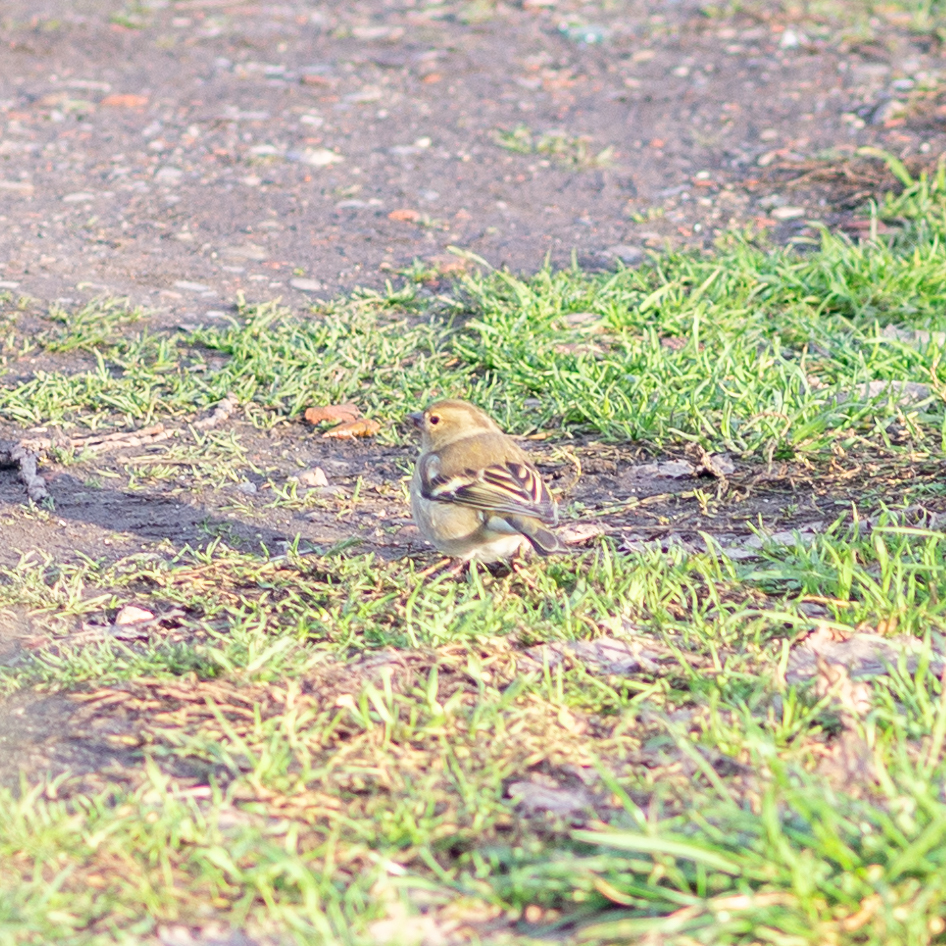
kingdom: Animalia
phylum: Chordata
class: Aves
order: Passeriformes
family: Fringillidae
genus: Fringilla
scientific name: Fringilla coelebs
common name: Common chaffinch
